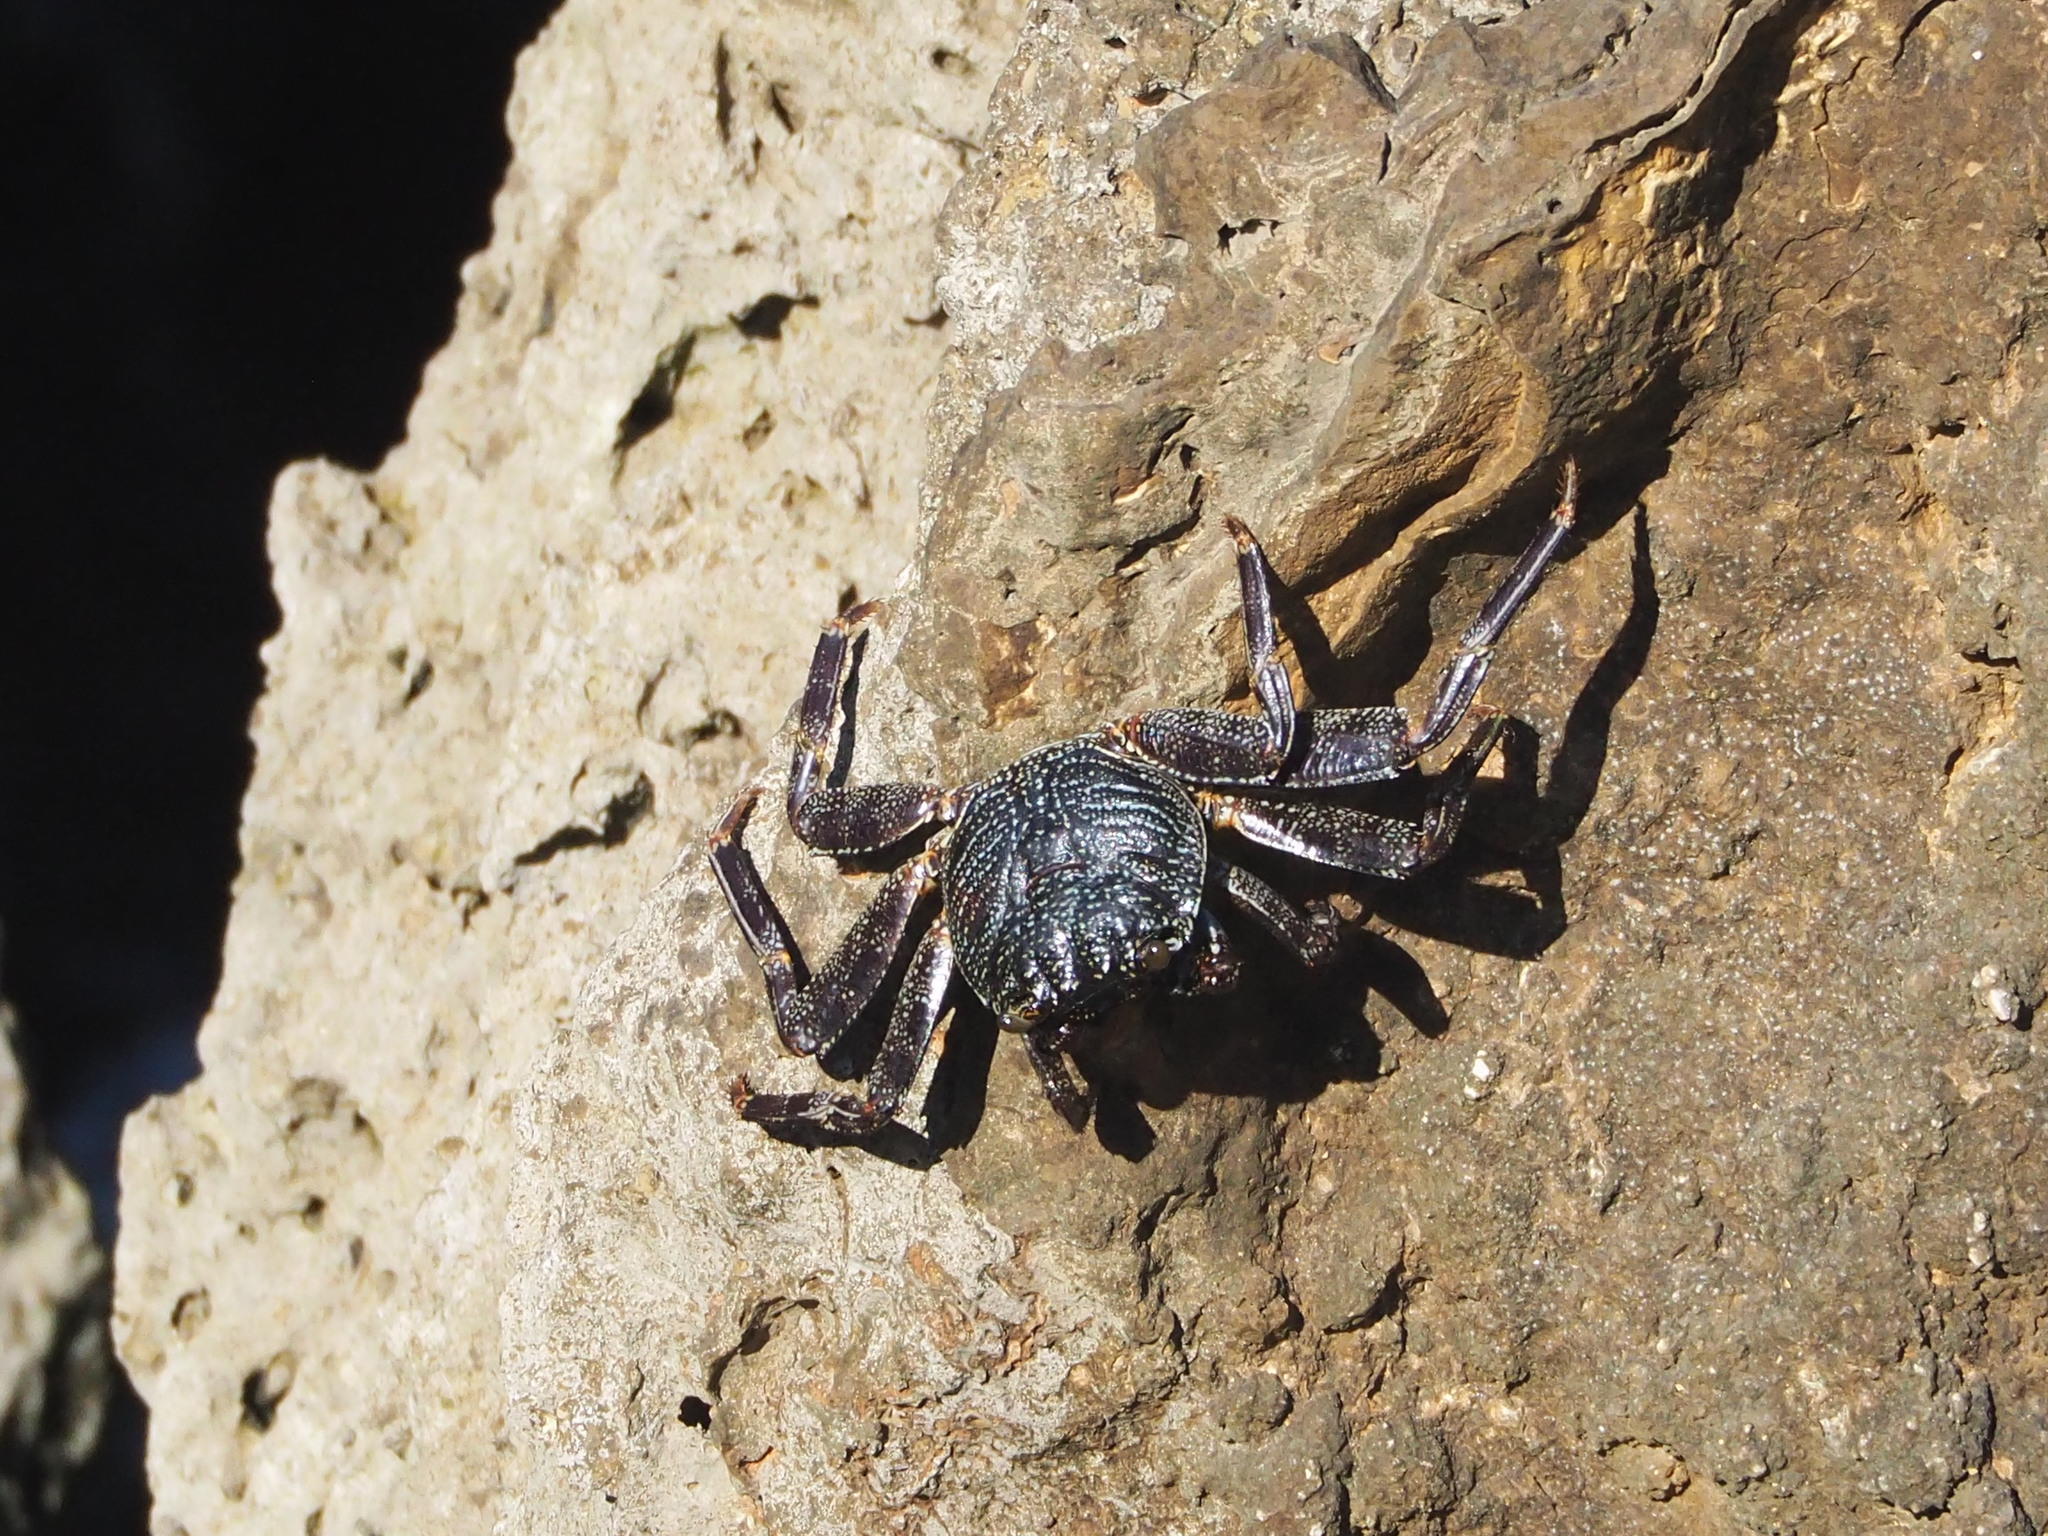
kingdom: Animalia
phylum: Arthropoda
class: Malacostraca
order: Decapoda
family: Grapsidae
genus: Grapsus
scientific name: Grapsus tenuicrustatus
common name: Natal lightfoot crab
